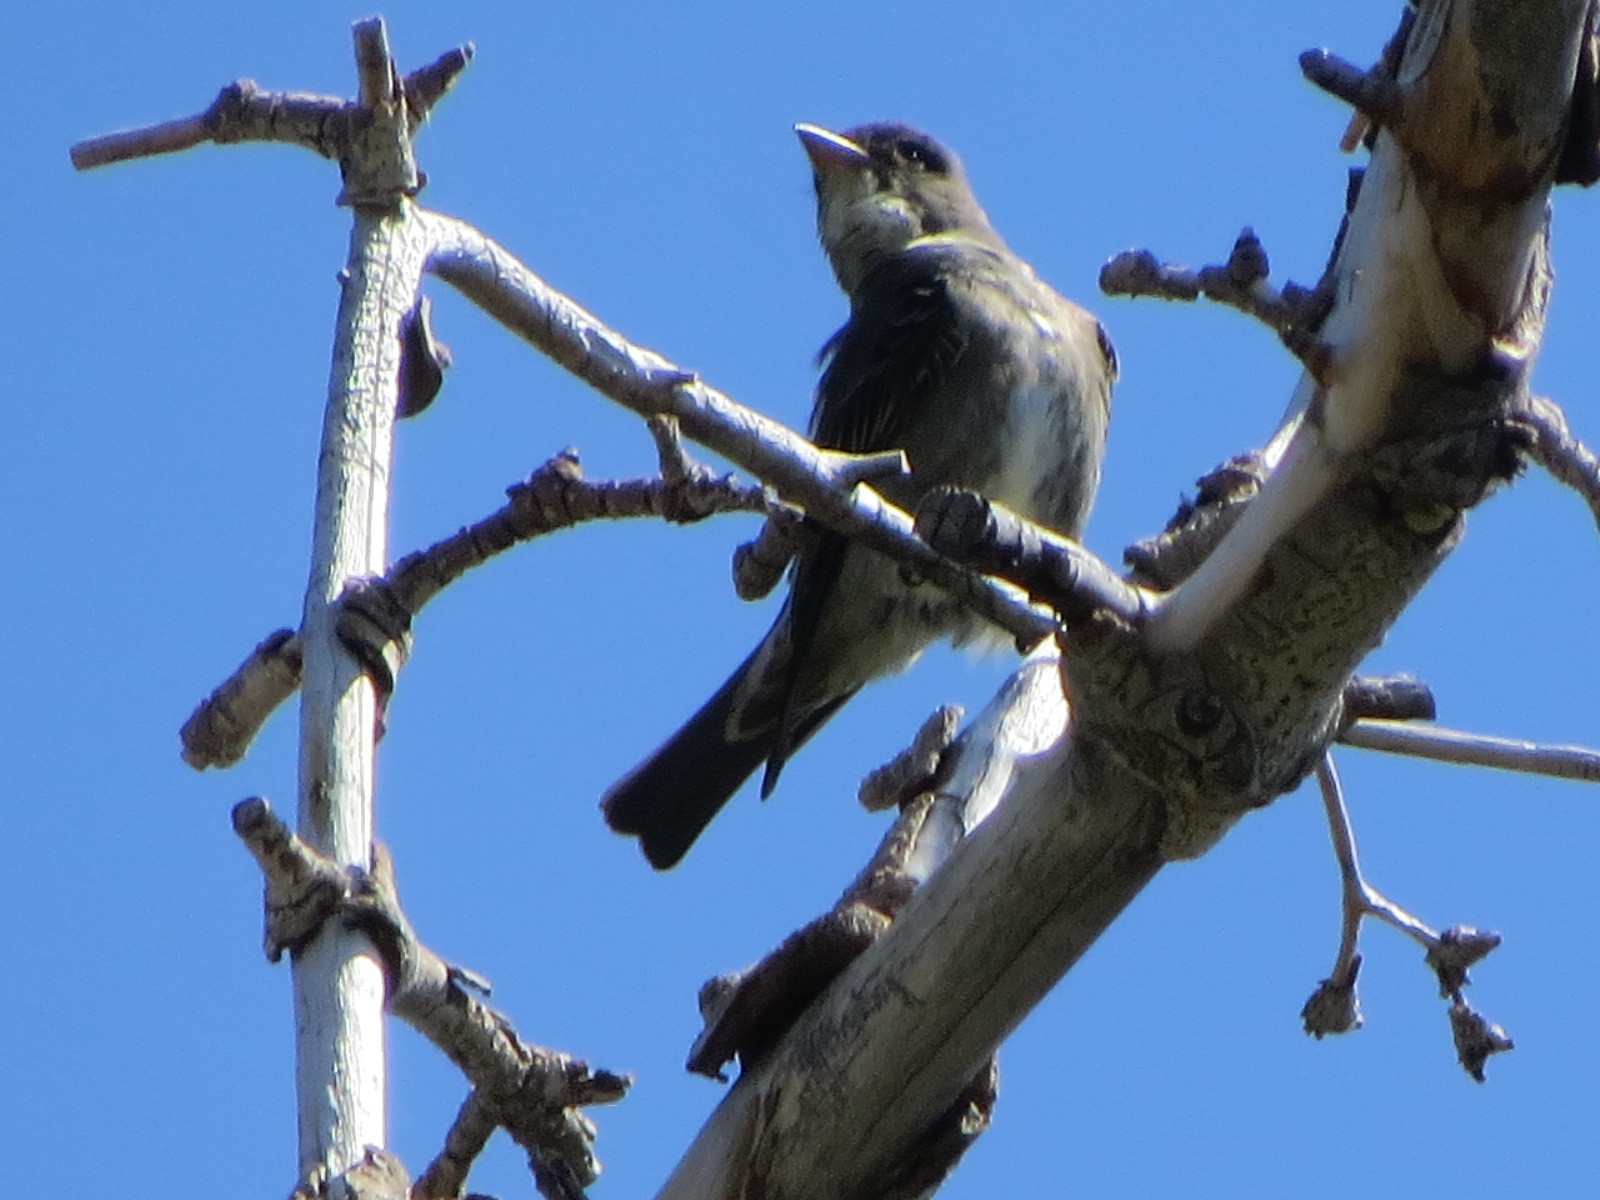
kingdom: Animalia
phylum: Chordata
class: Aves
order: Passeriformes
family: Tyrannidae
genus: Contopus
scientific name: Contopus cooperi
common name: Olive-sided flycatcher
